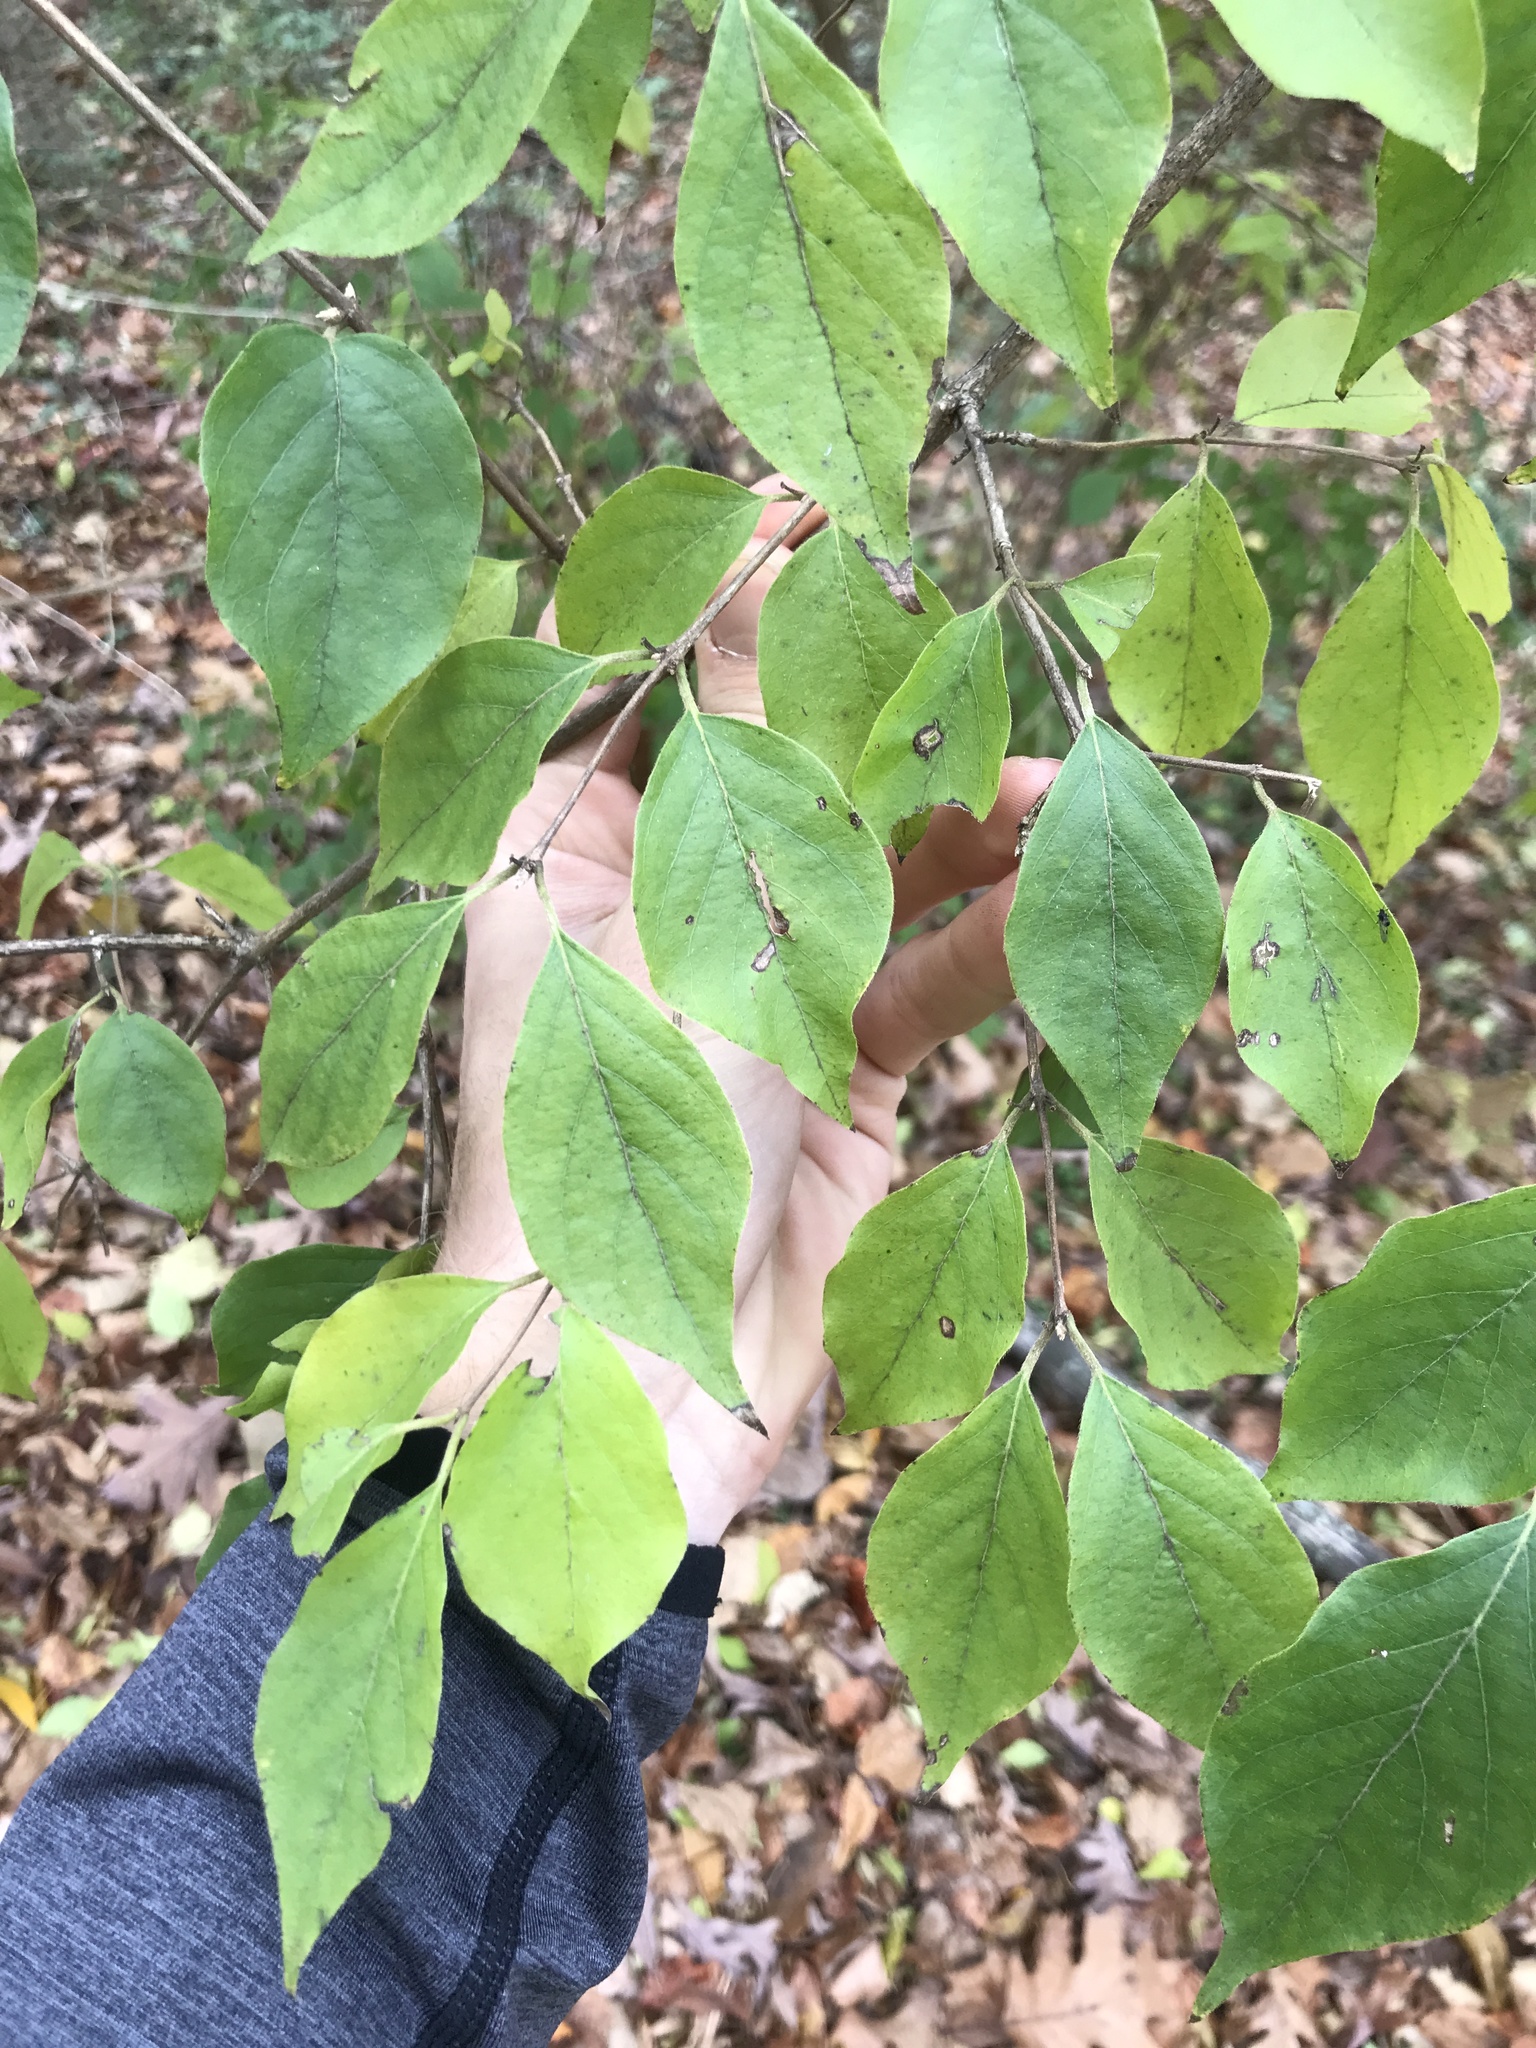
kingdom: Plantae
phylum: Tracheophyta
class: Magnoliopsida
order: Dipsacales
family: Caprifoliaceae
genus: Lonicera
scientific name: Lonicera maackii
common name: Amur honeysuckle
